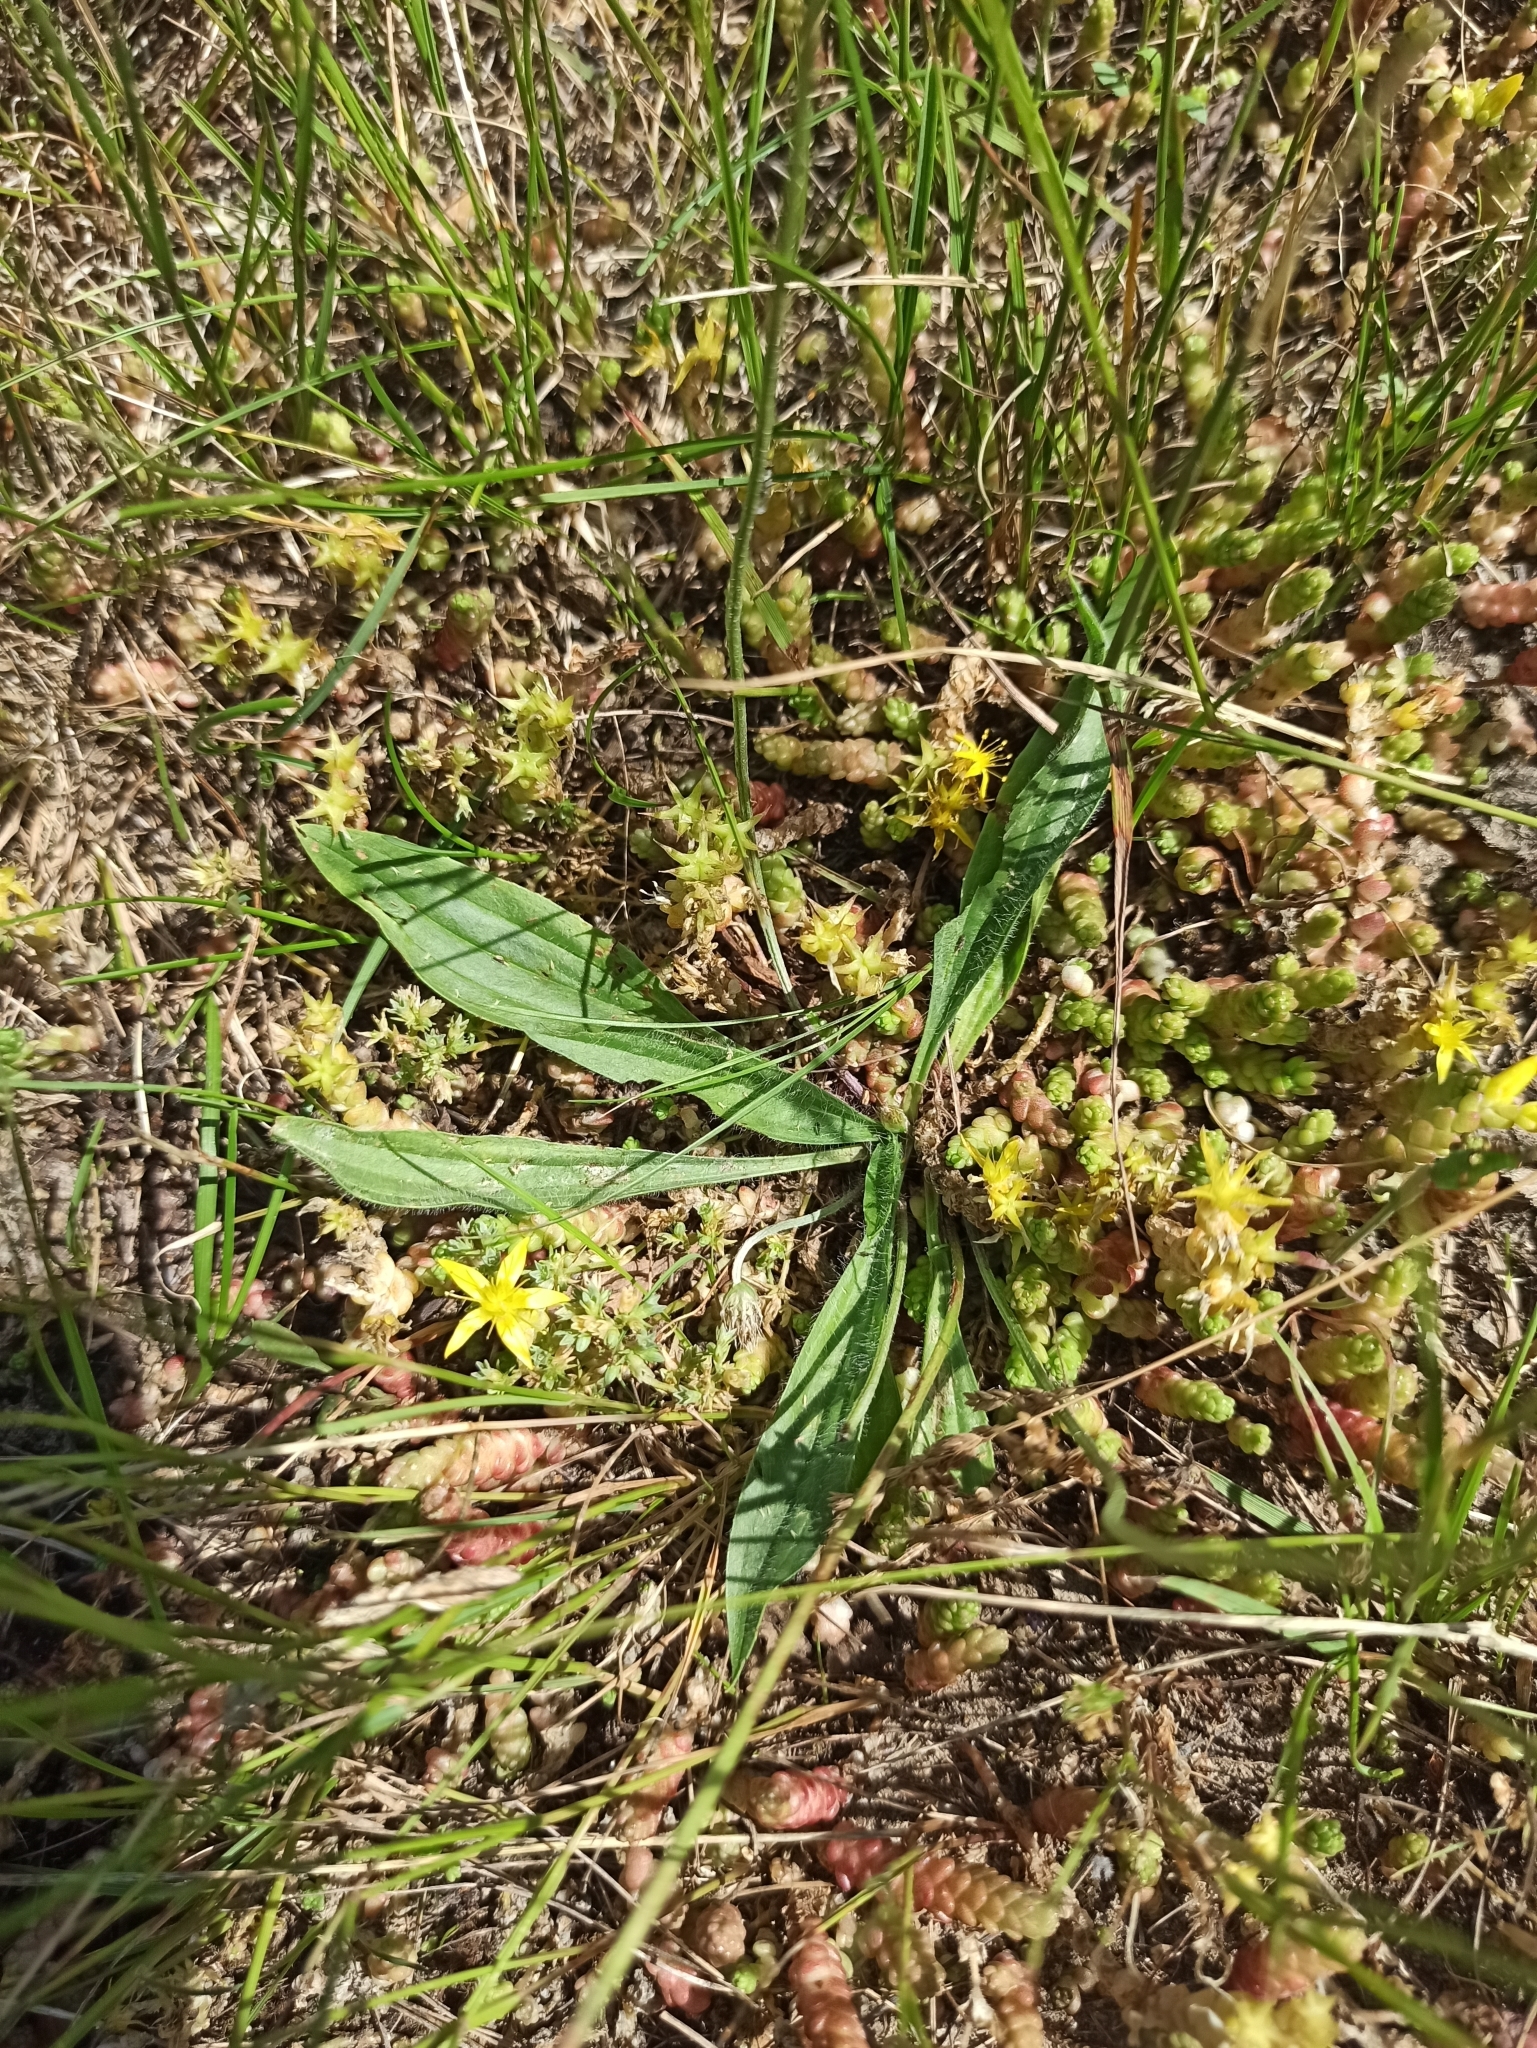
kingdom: Plantae
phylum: Tracheophyta
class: Magnoliopsida
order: Lamiales
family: Plantaginaceae
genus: Plantago
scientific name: Plantago lanceolata
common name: Ribwort plantain
